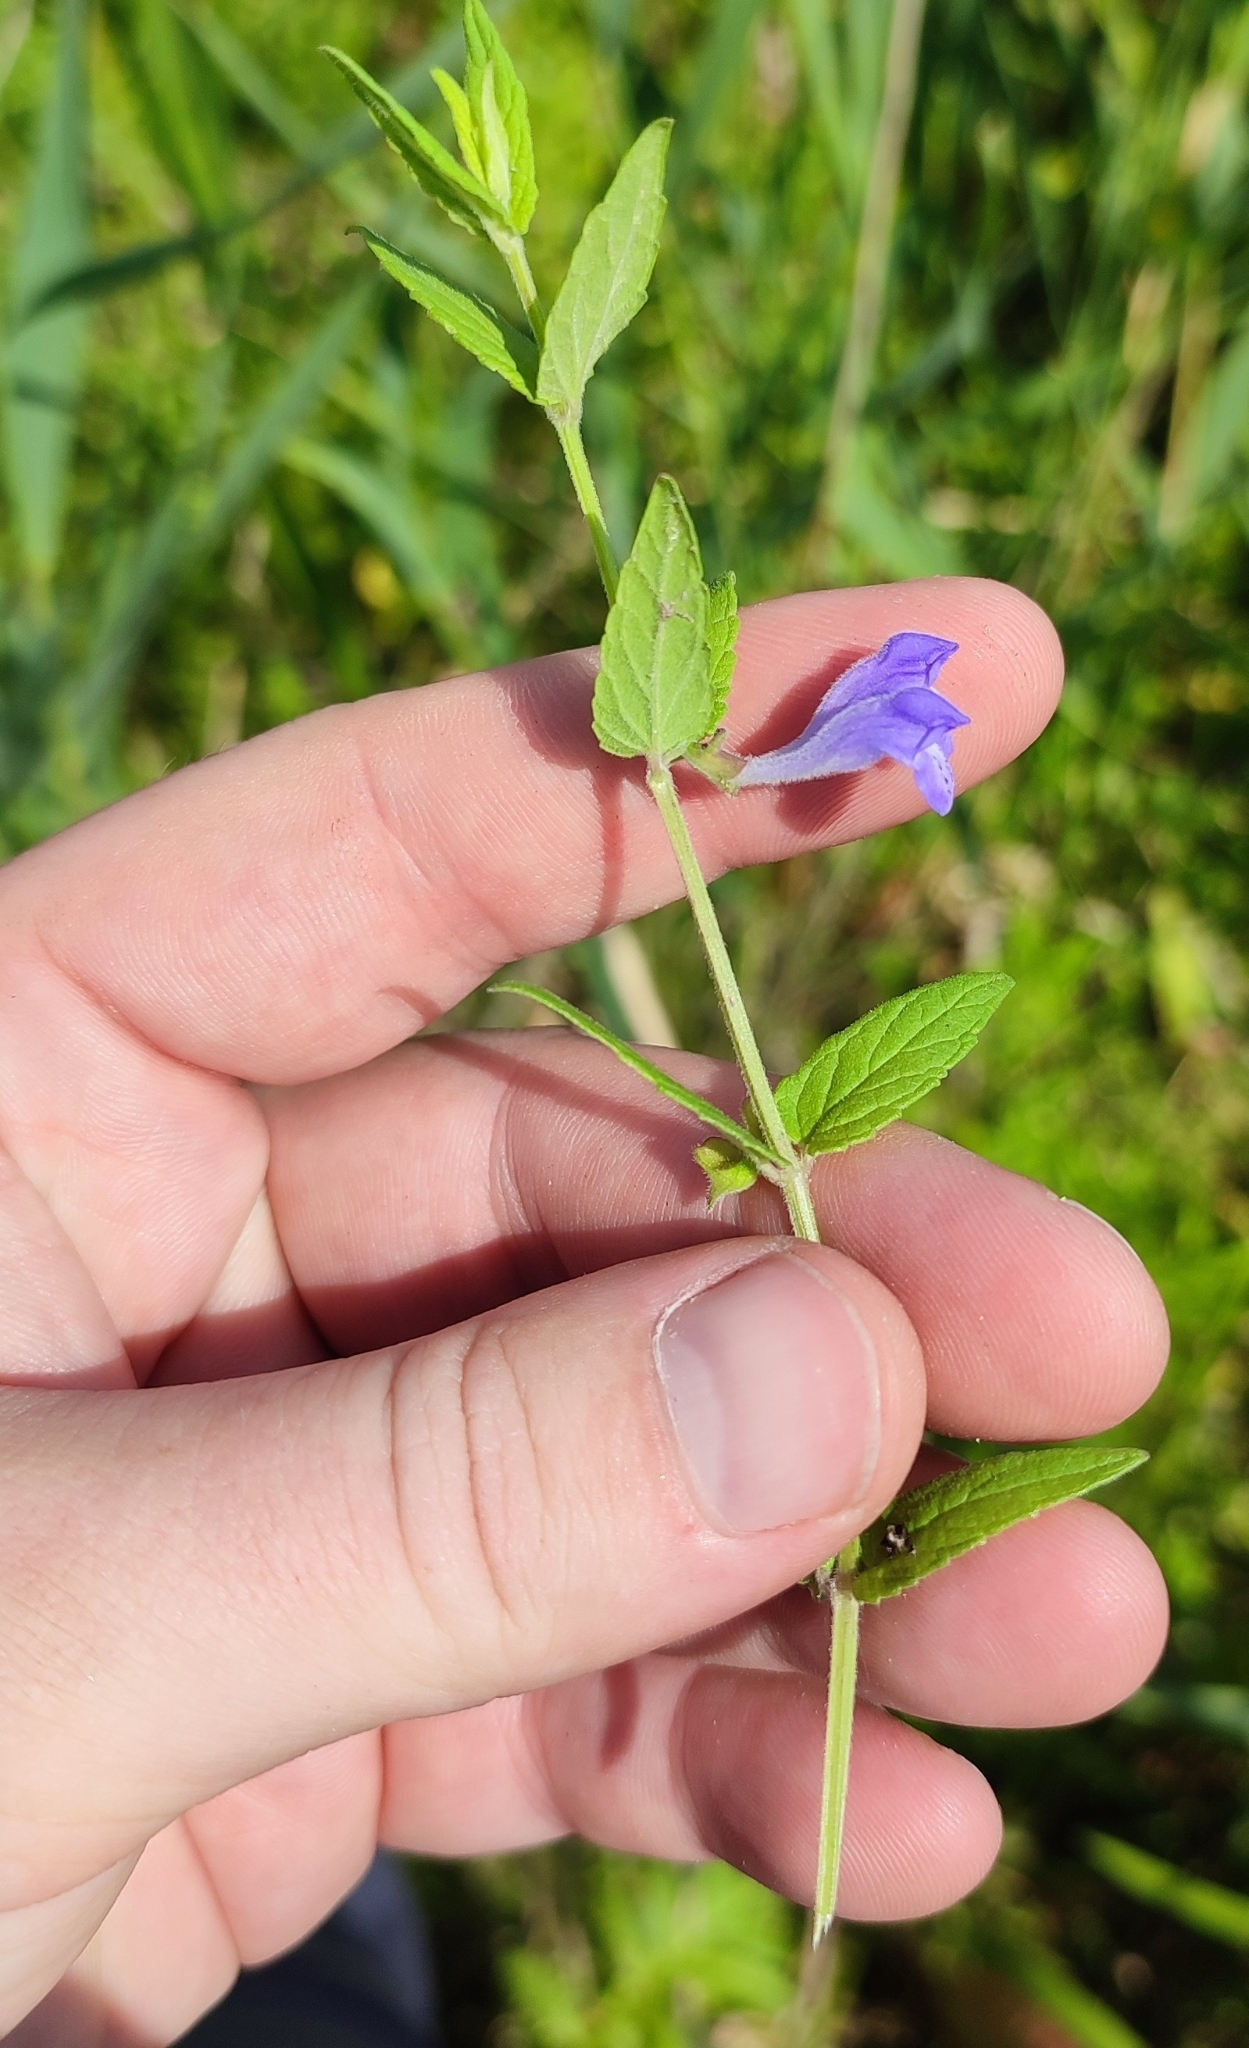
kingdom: Plantae
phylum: Tracheophyta
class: Magnoliopsida
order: Lamiales
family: Lamiaceae
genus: Scutellaria
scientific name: Scutellaria galericulata
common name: Skullcap
